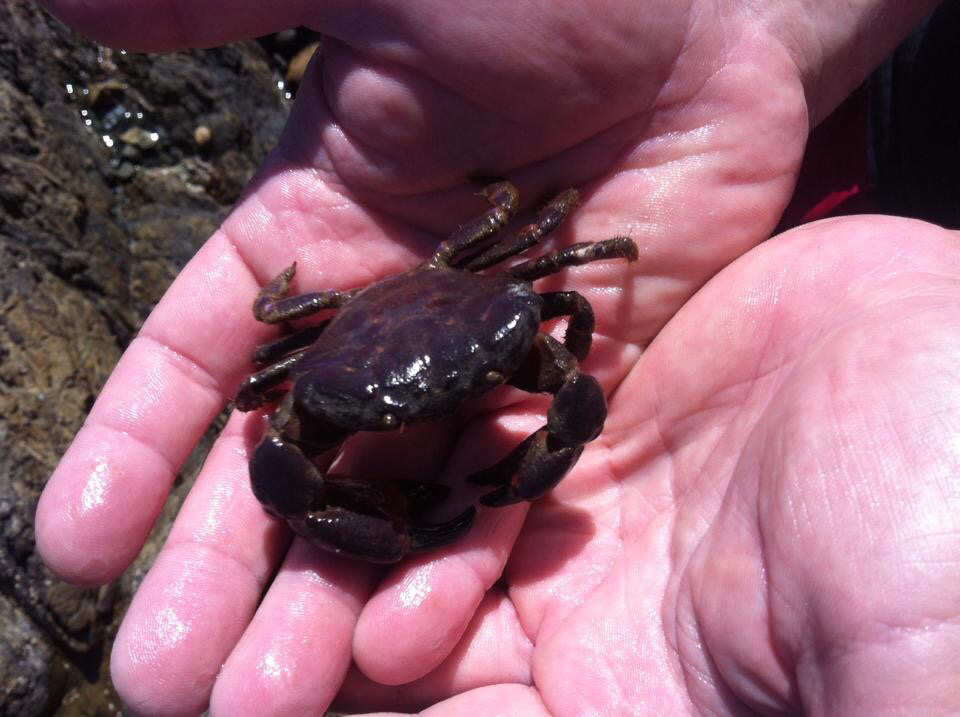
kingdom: Animalia
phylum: Arthropoda
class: Malacostraca
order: Decapoda
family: Oziidae
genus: Ozius
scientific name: Ozius deplanatus
